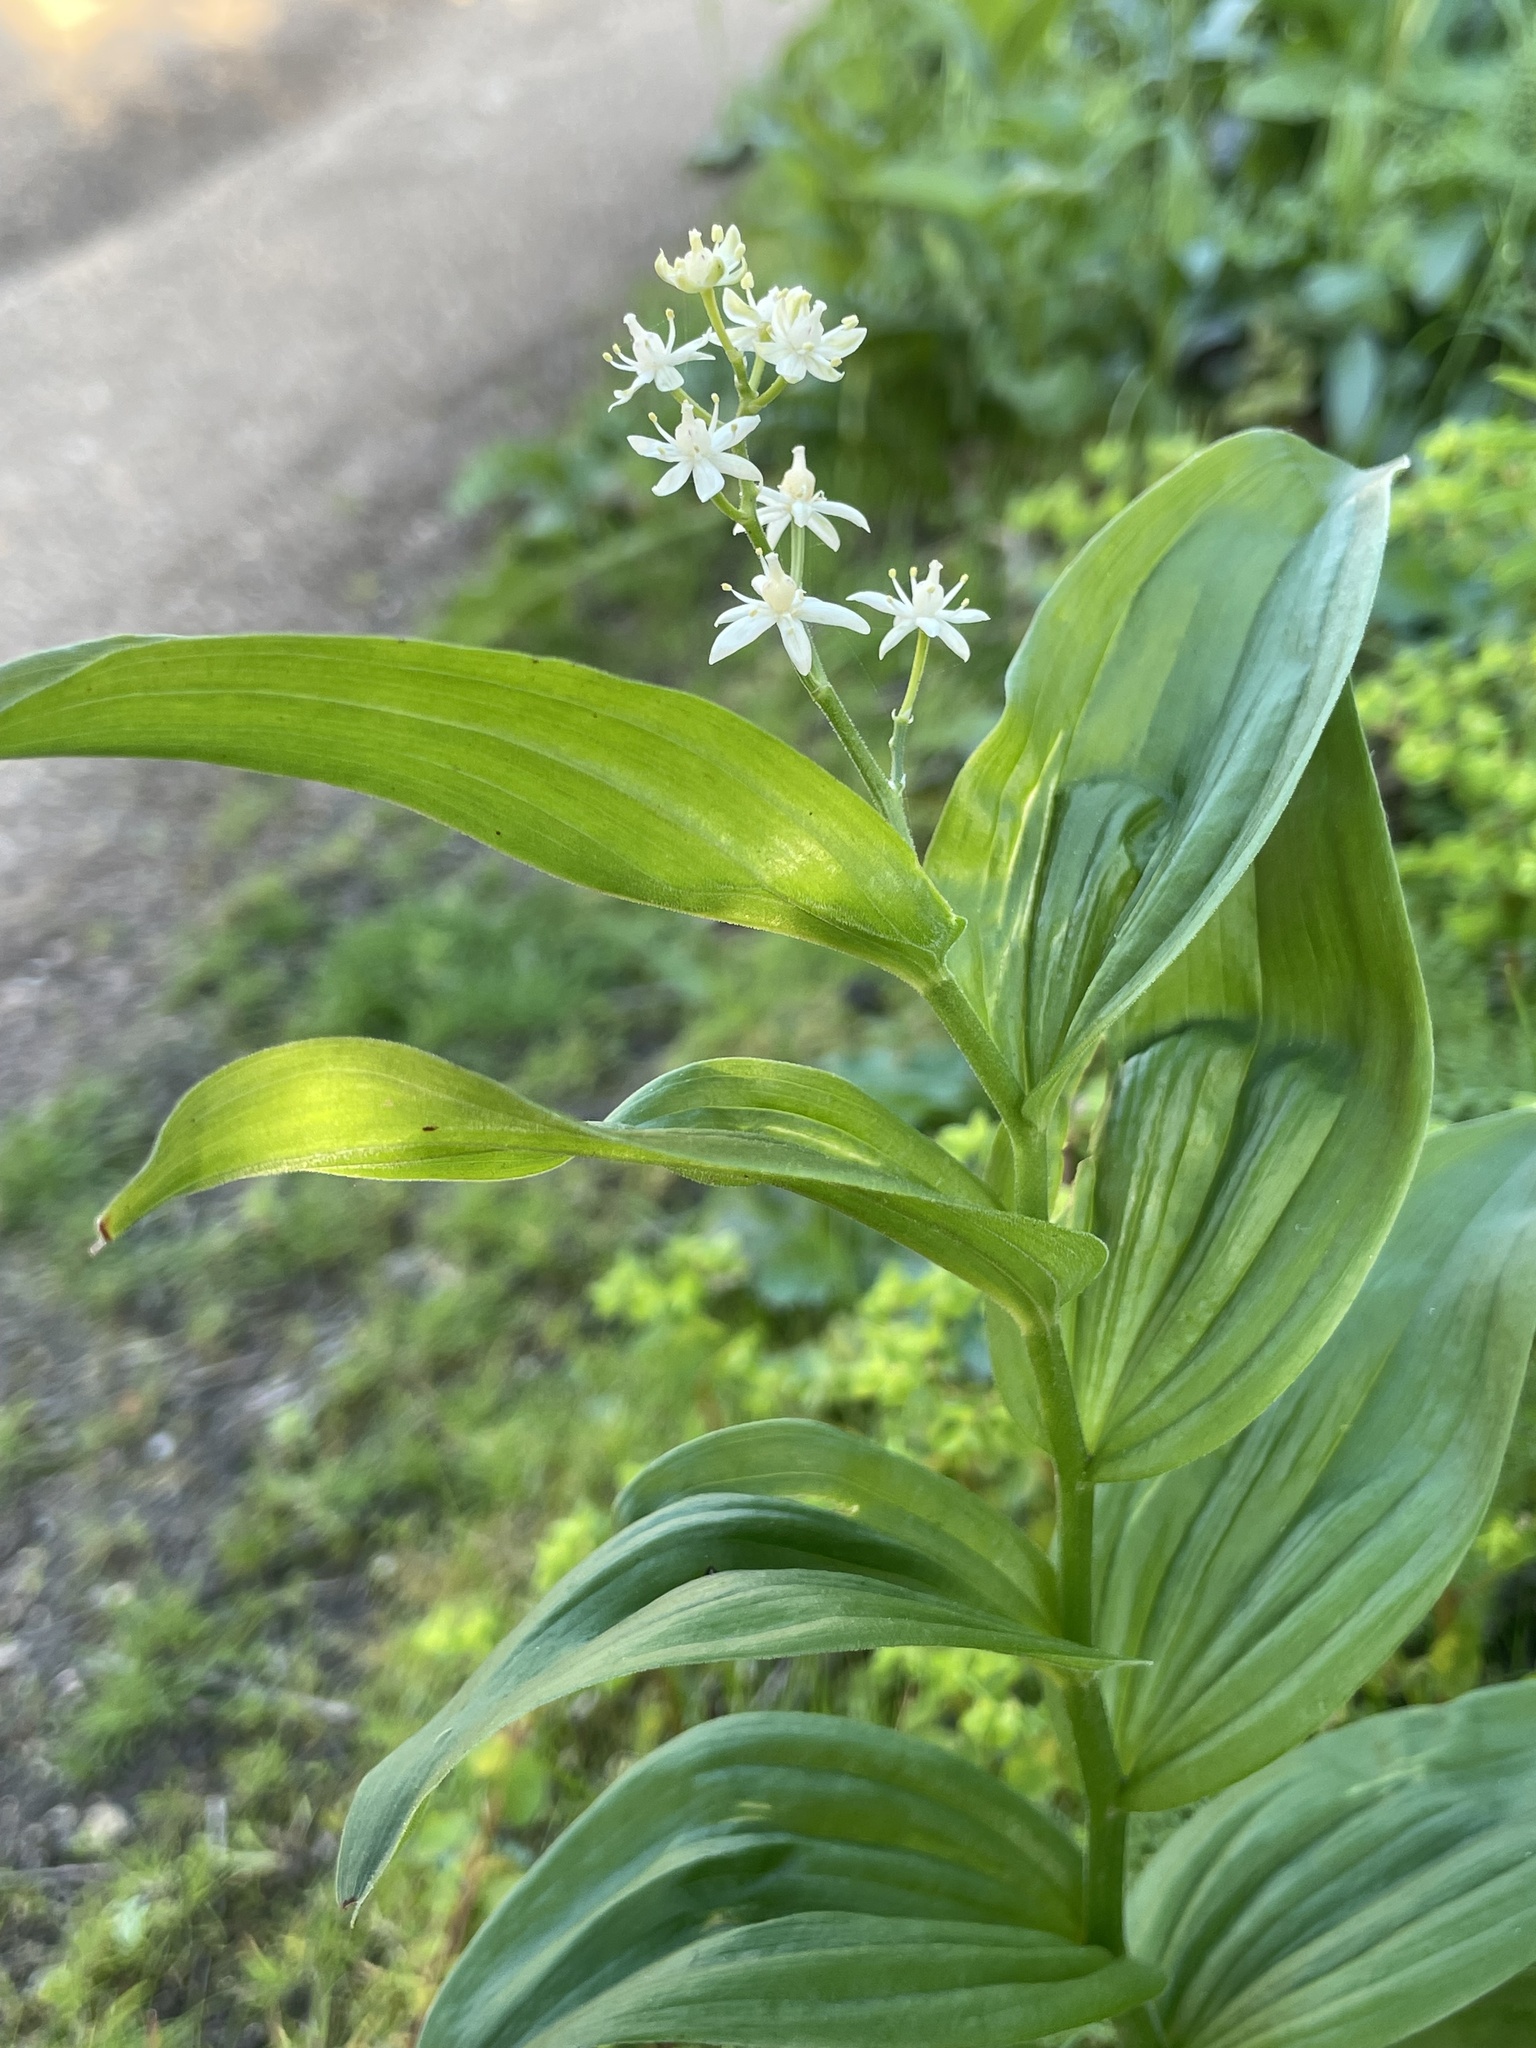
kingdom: Plantae
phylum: Tracheophyta
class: Liliopsida
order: Asparagales
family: Asparagaceae
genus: Maianthemum
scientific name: Maianthemum stellatum
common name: Little false solomon's seal
